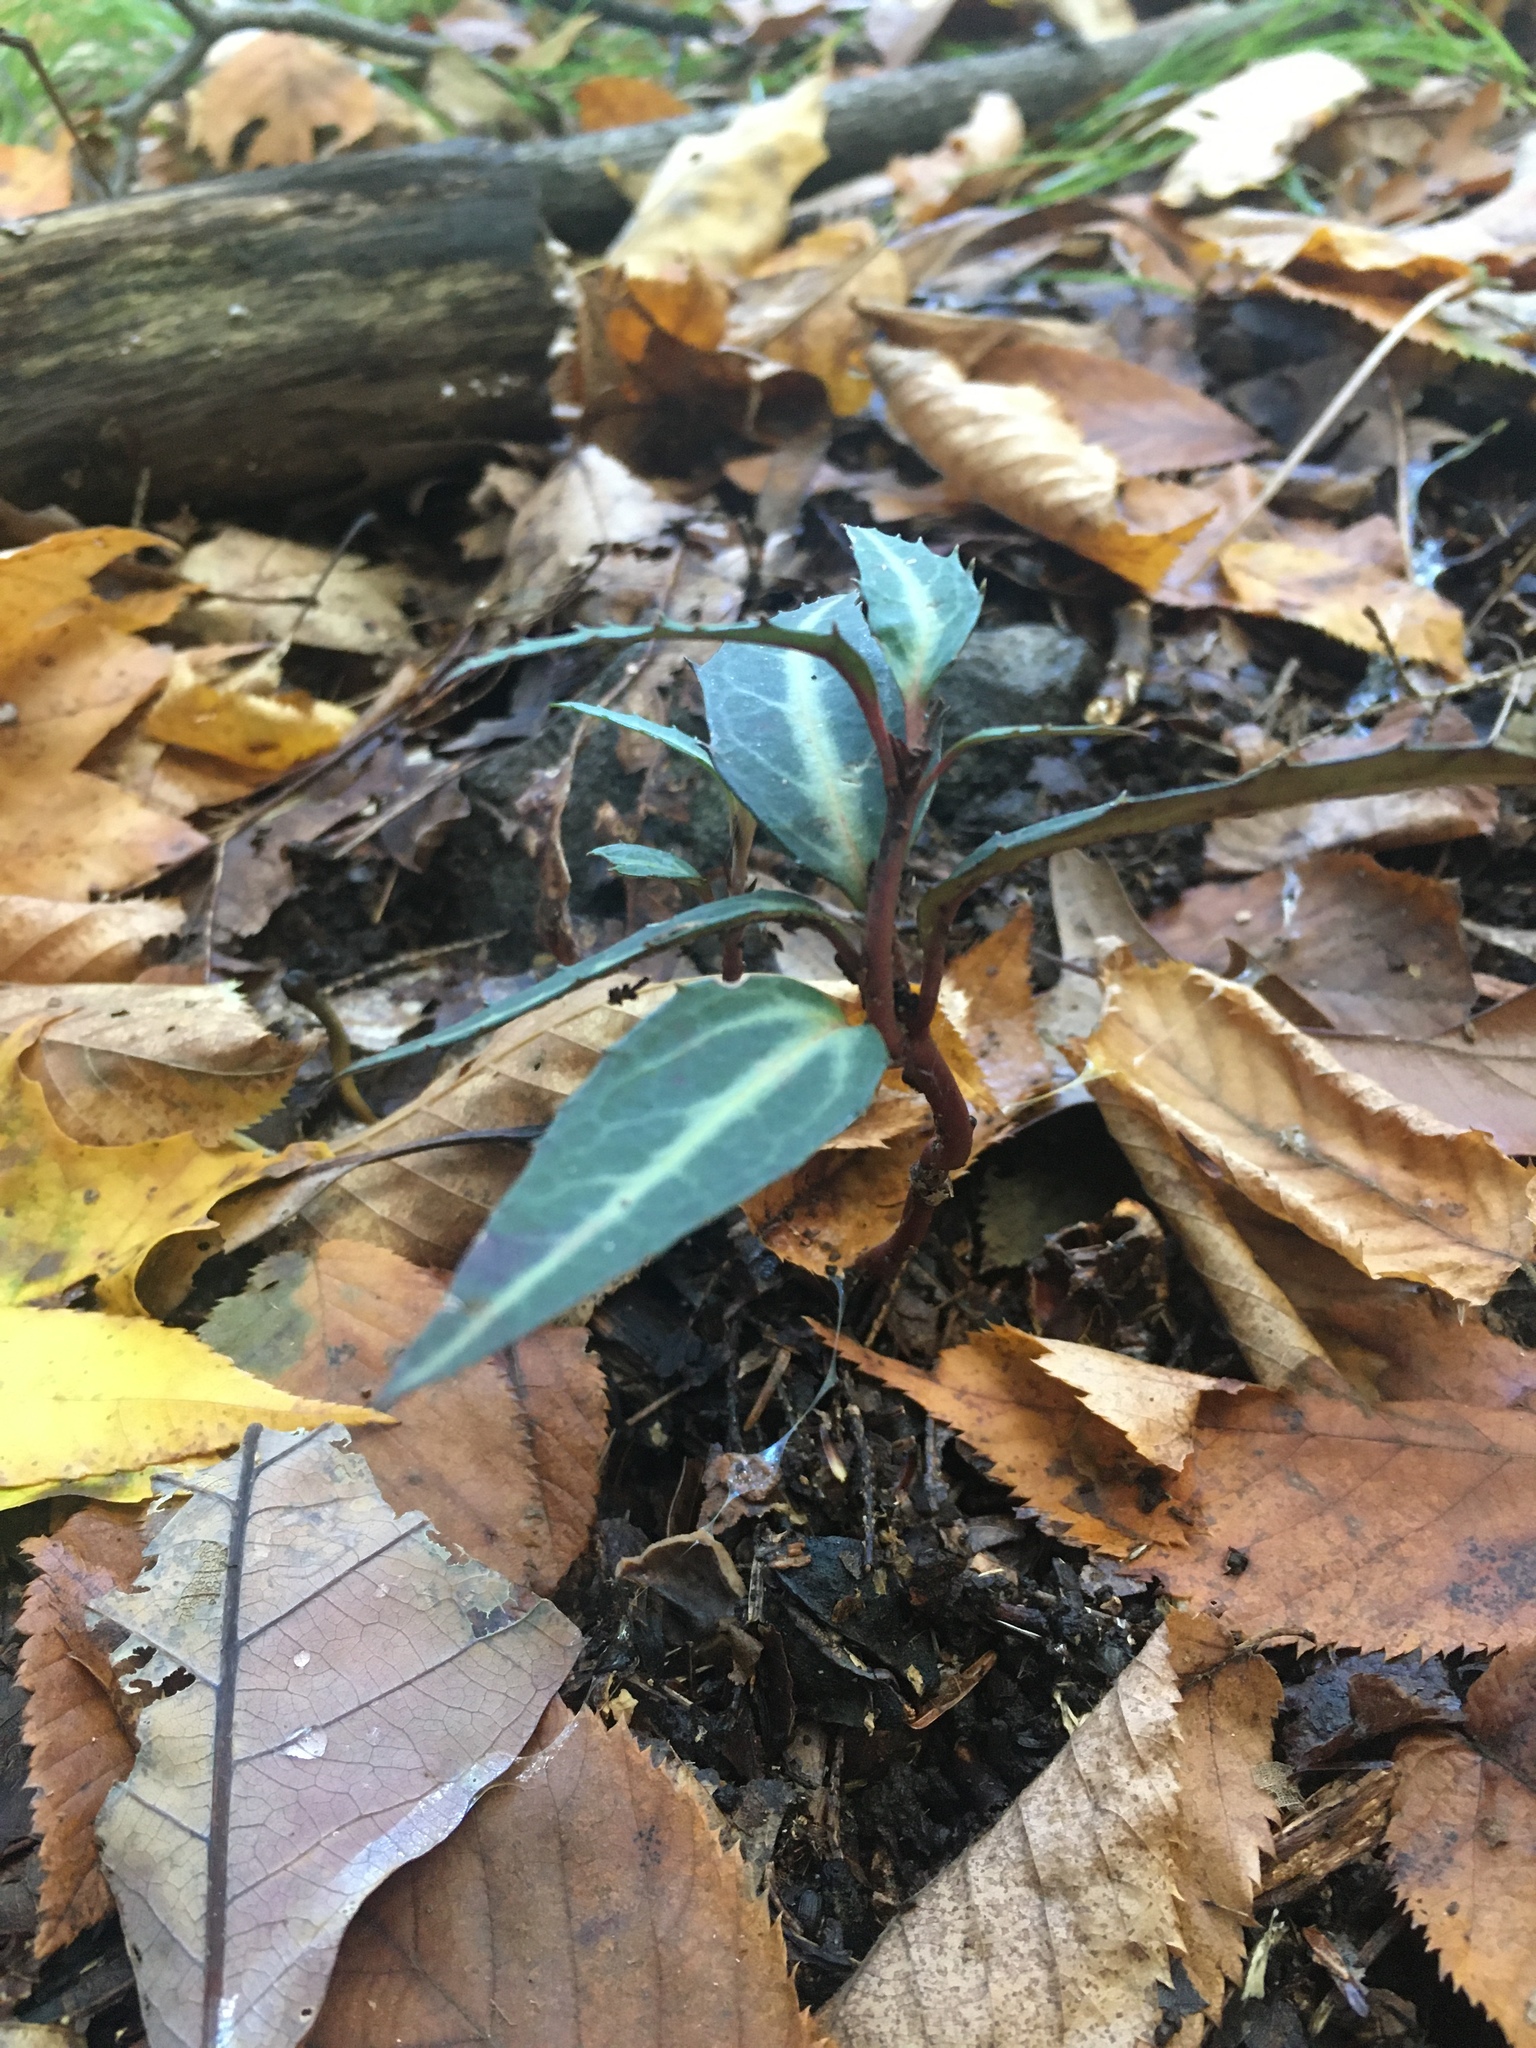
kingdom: Plantae
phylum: Tracheophyta
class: Magnoliopsida
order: Ericales
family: Ericaceae
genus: Chimaphila
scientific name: Chimaphila maculata
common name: Spotted pipsissewa
